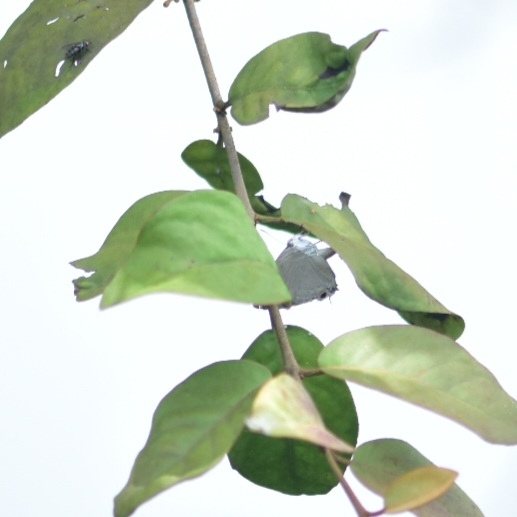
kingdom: Animalia
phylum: Arthropoda
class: Insecta
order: Lepidoptera
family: Lycaenidae
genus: Tajuria
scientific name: Tajuria cippus
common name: Peacock royal
